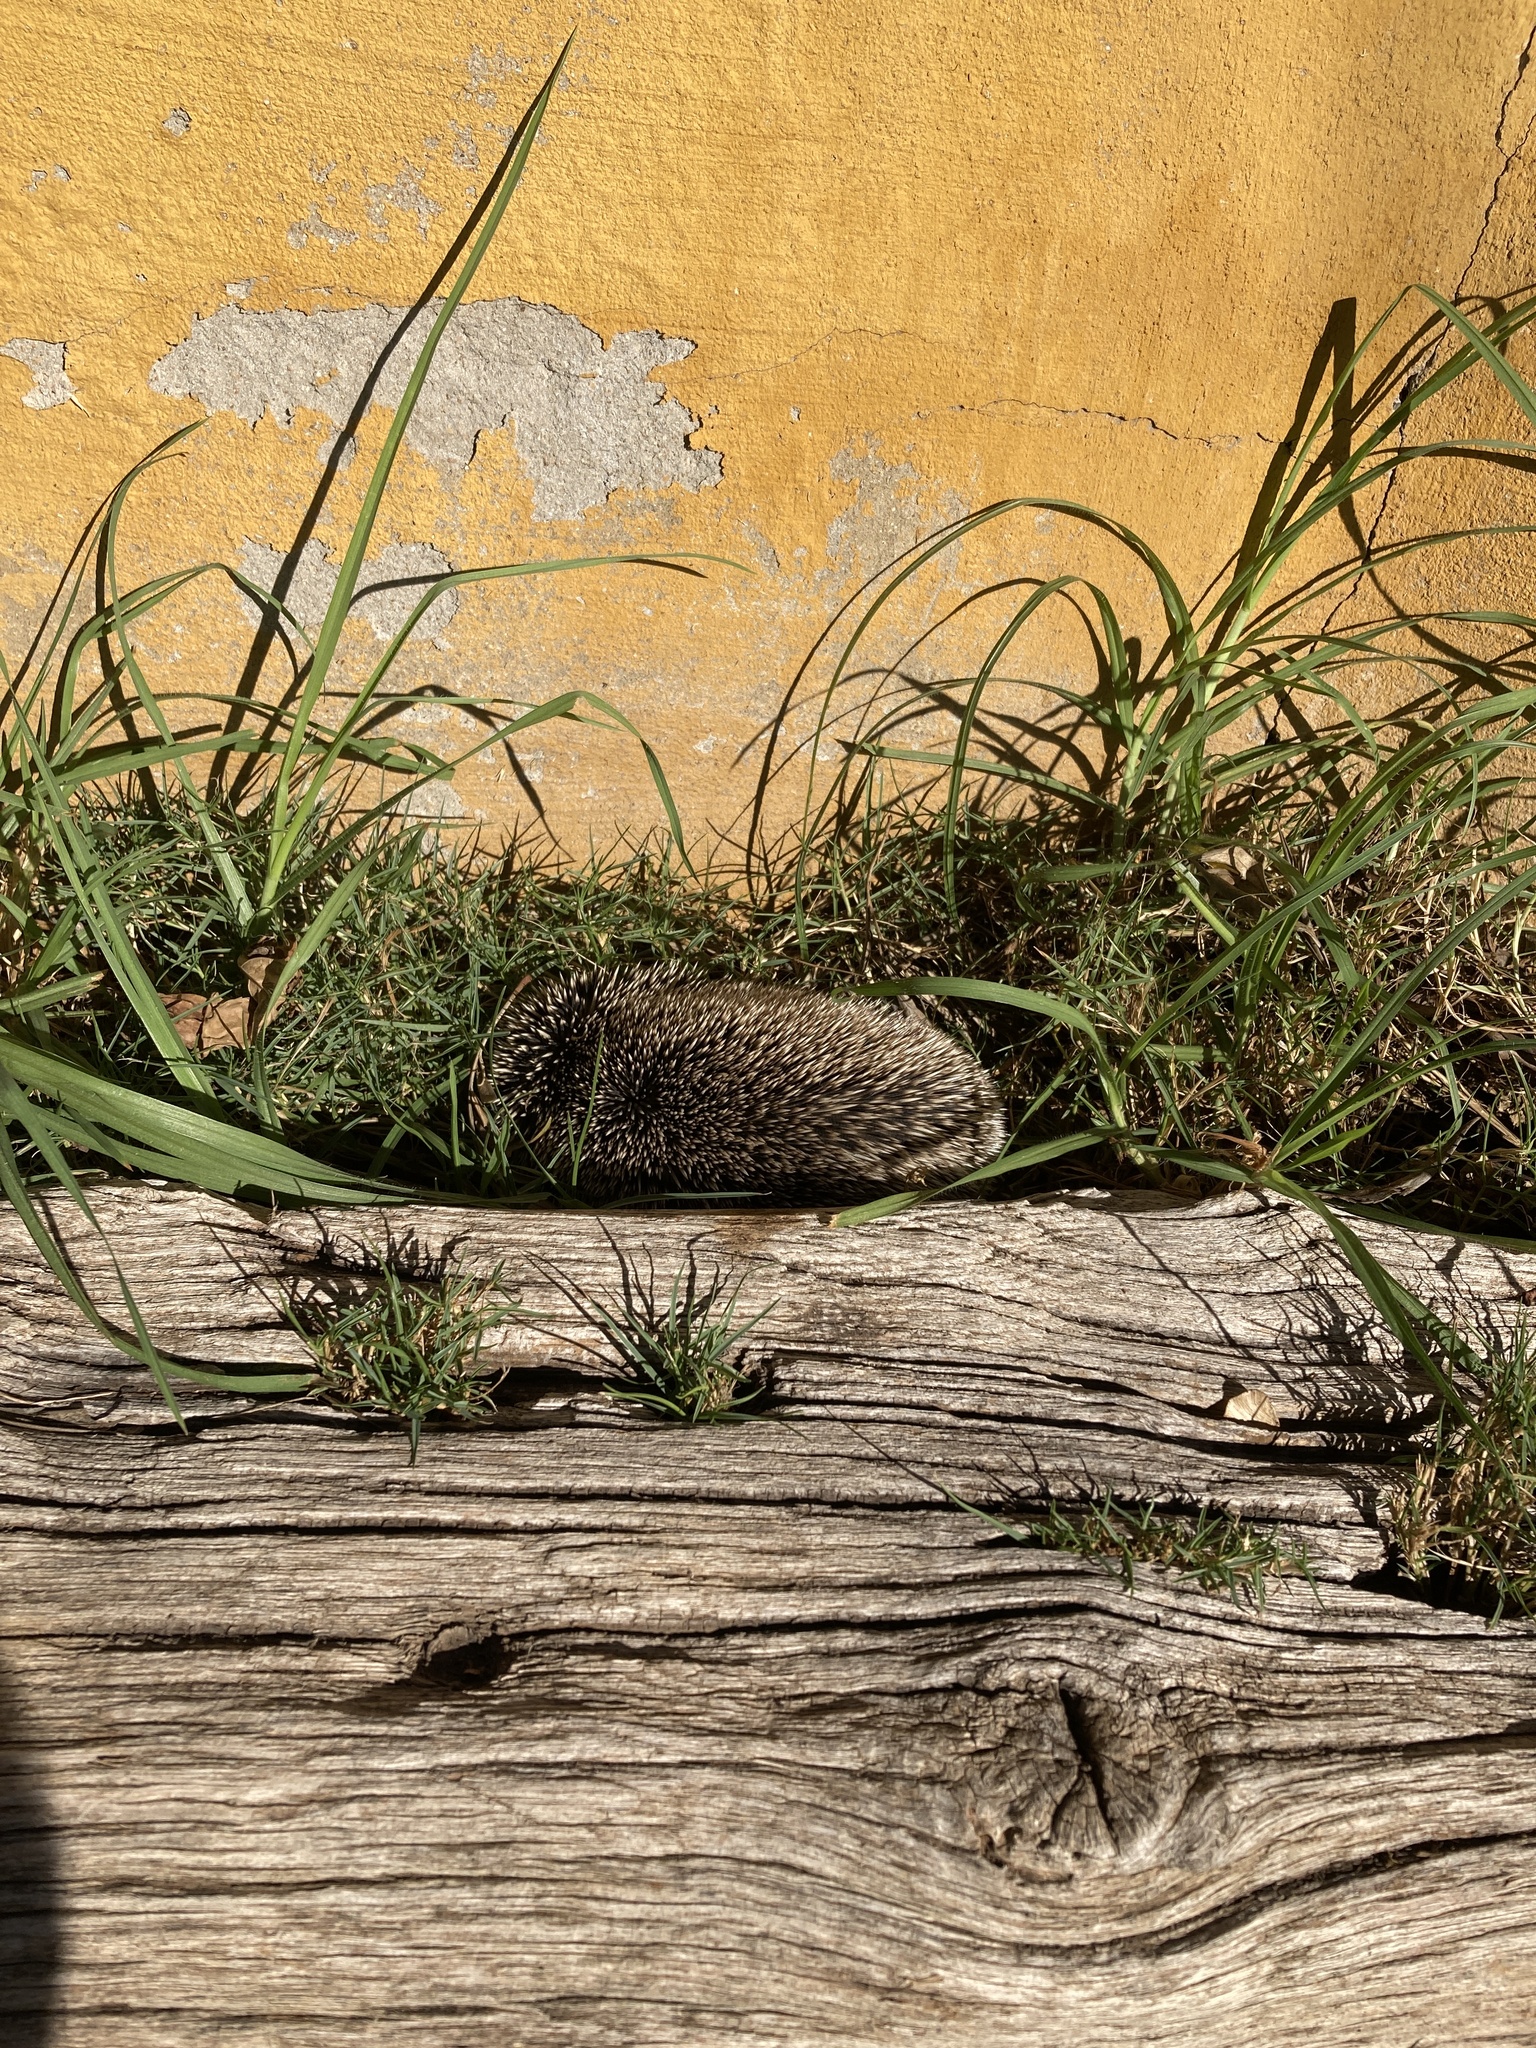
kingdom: Animalia
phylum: Chordata
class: Mammalia
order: Erinaceomorpha
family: Erinaceidae
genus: Atelerix
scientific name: Atelerix algirus
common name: North african hedgehog
